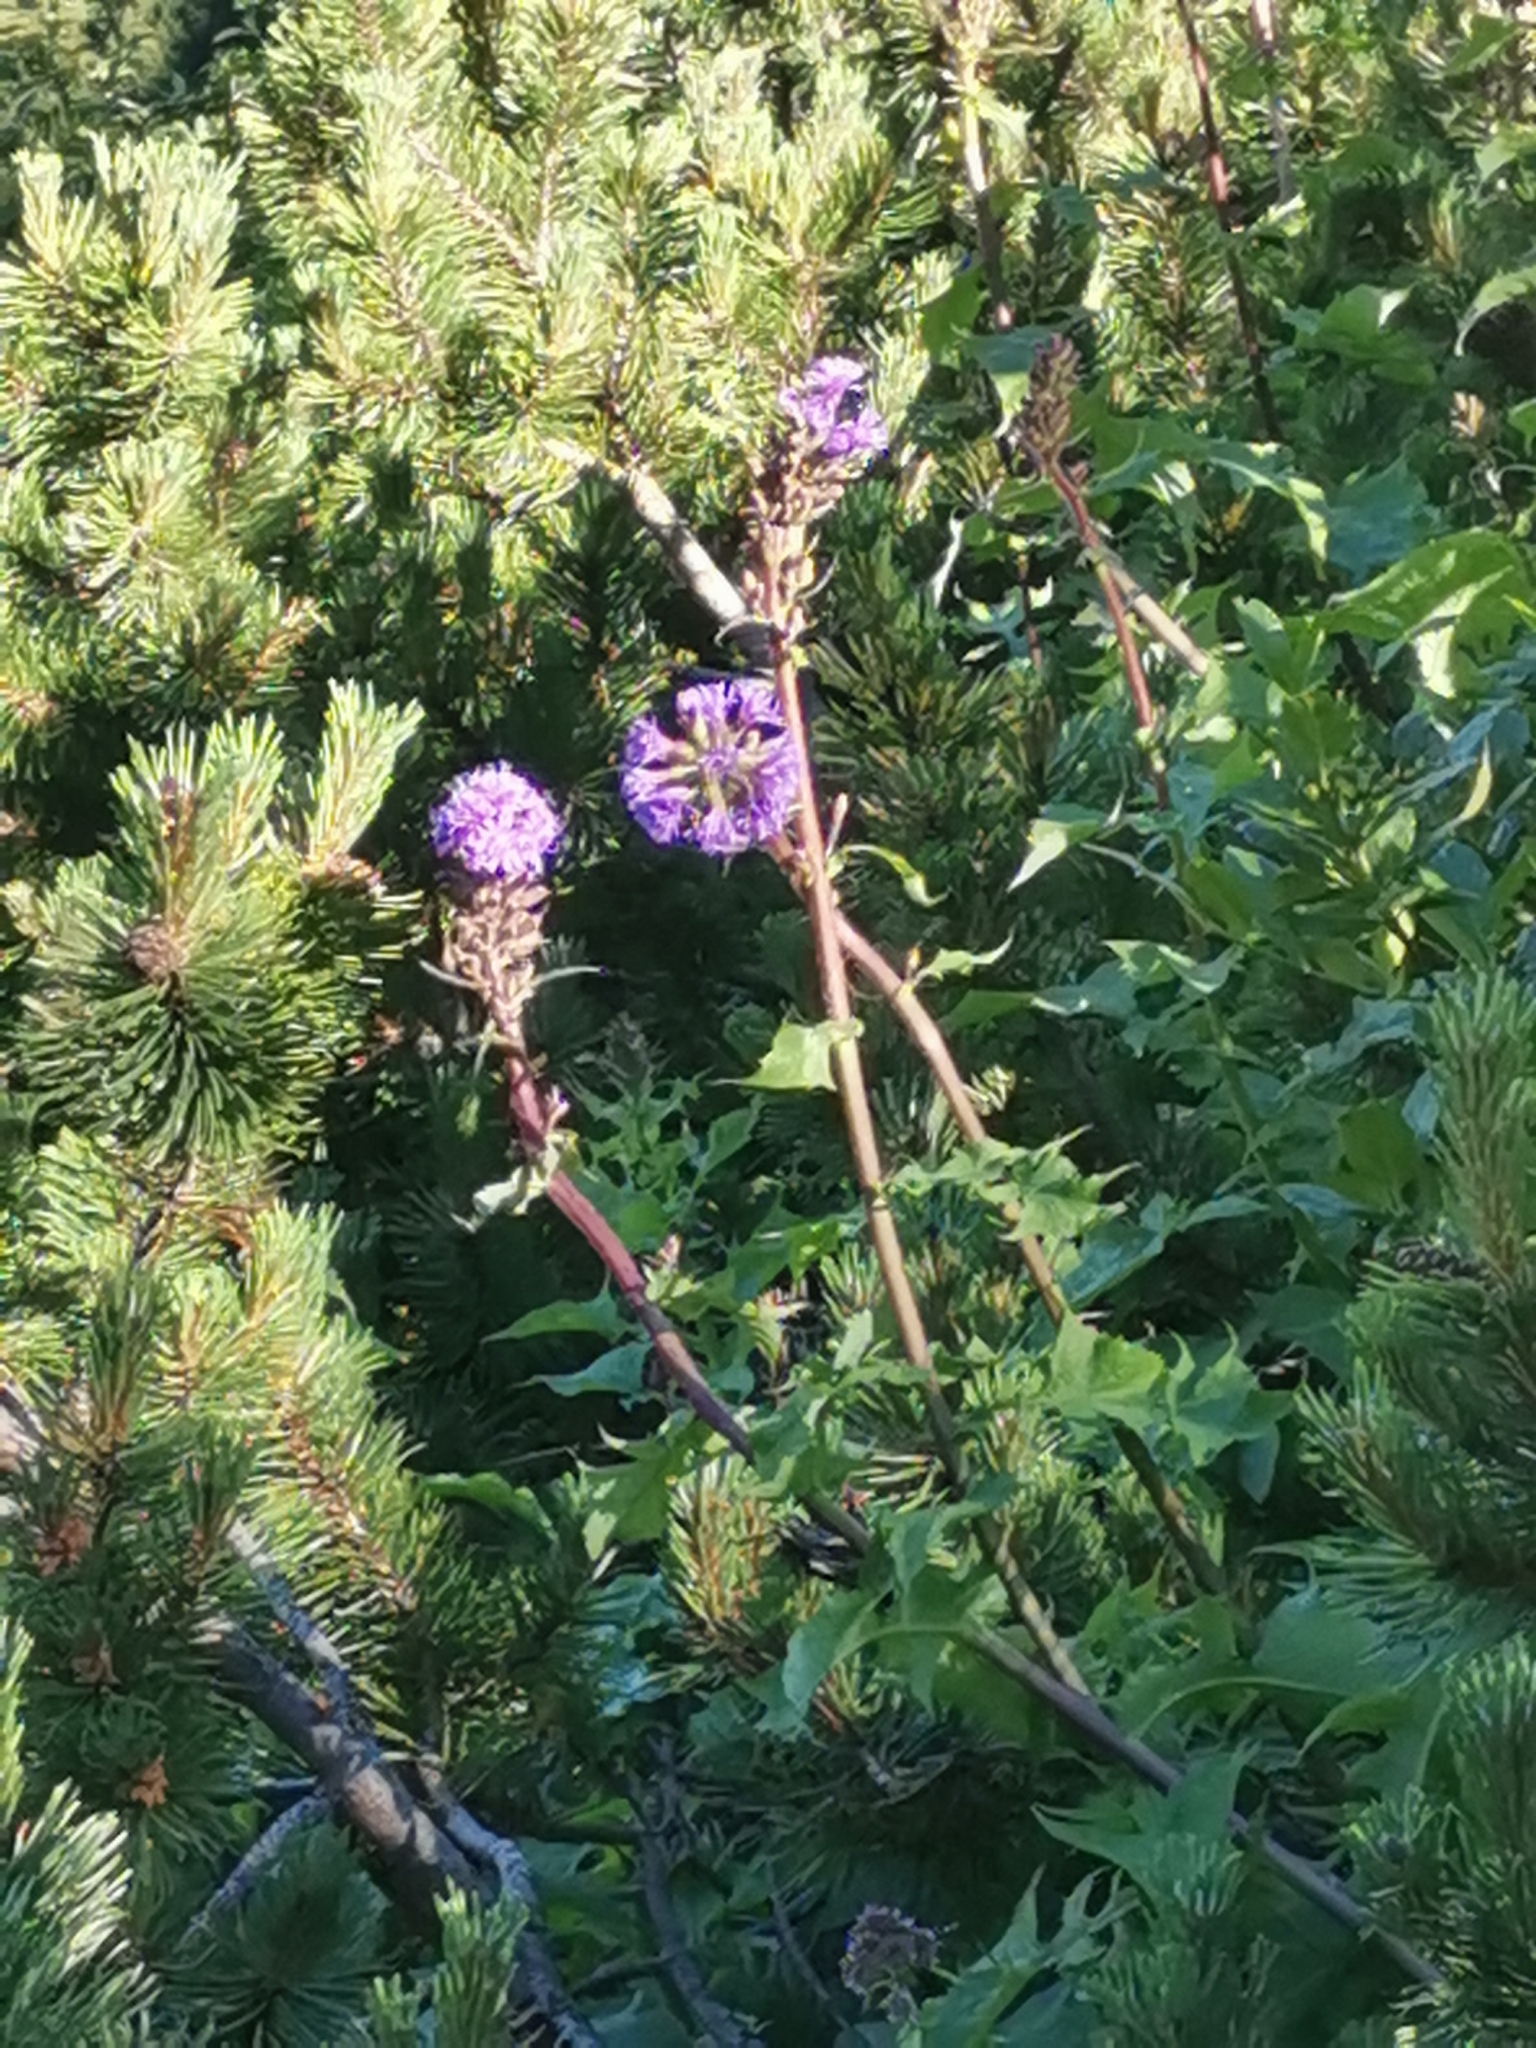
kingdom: Plantae
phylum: Tracheophyta
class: Magnoliopsida
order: Asterales
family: Asteraceae
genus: Cicerbita
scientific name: Cicerbita alpina
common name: Alpine blue-sow-thistle
